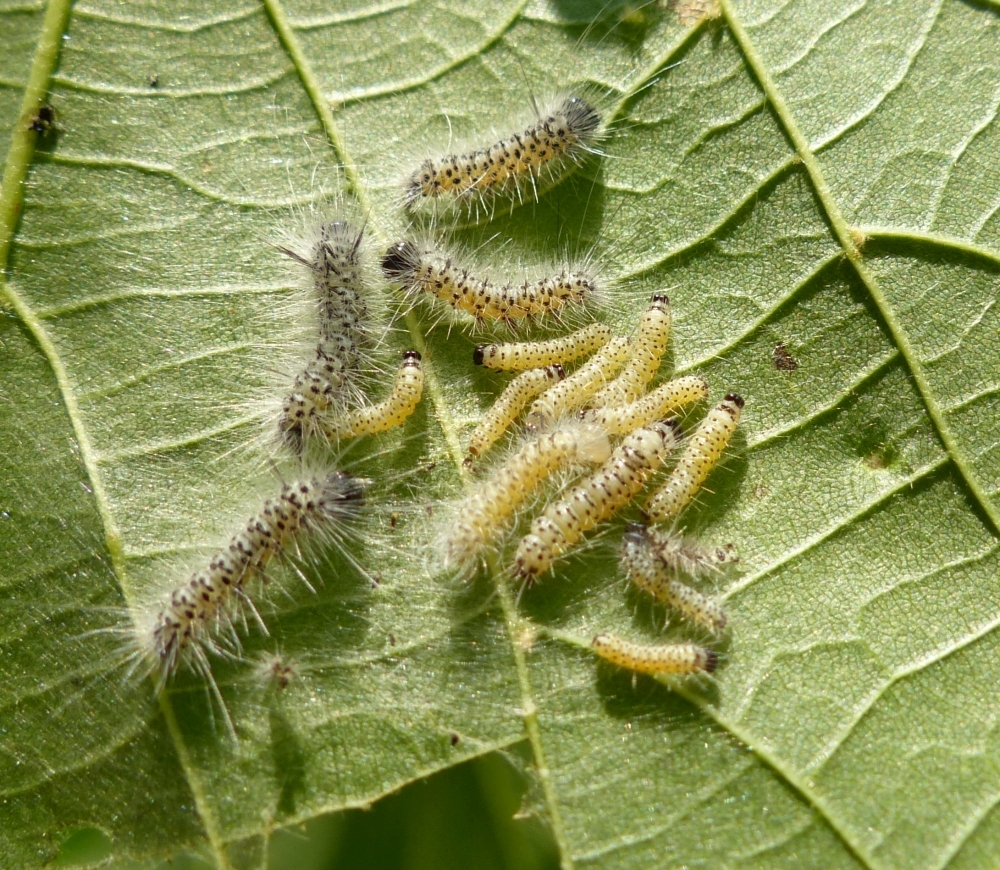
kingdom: Animalia
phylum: Arthropoda
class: Insecta
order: Lepidoptera
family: Erebidae
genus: Lophocampa
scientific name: Lophocampa caryae
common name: Hickory tussock moth
